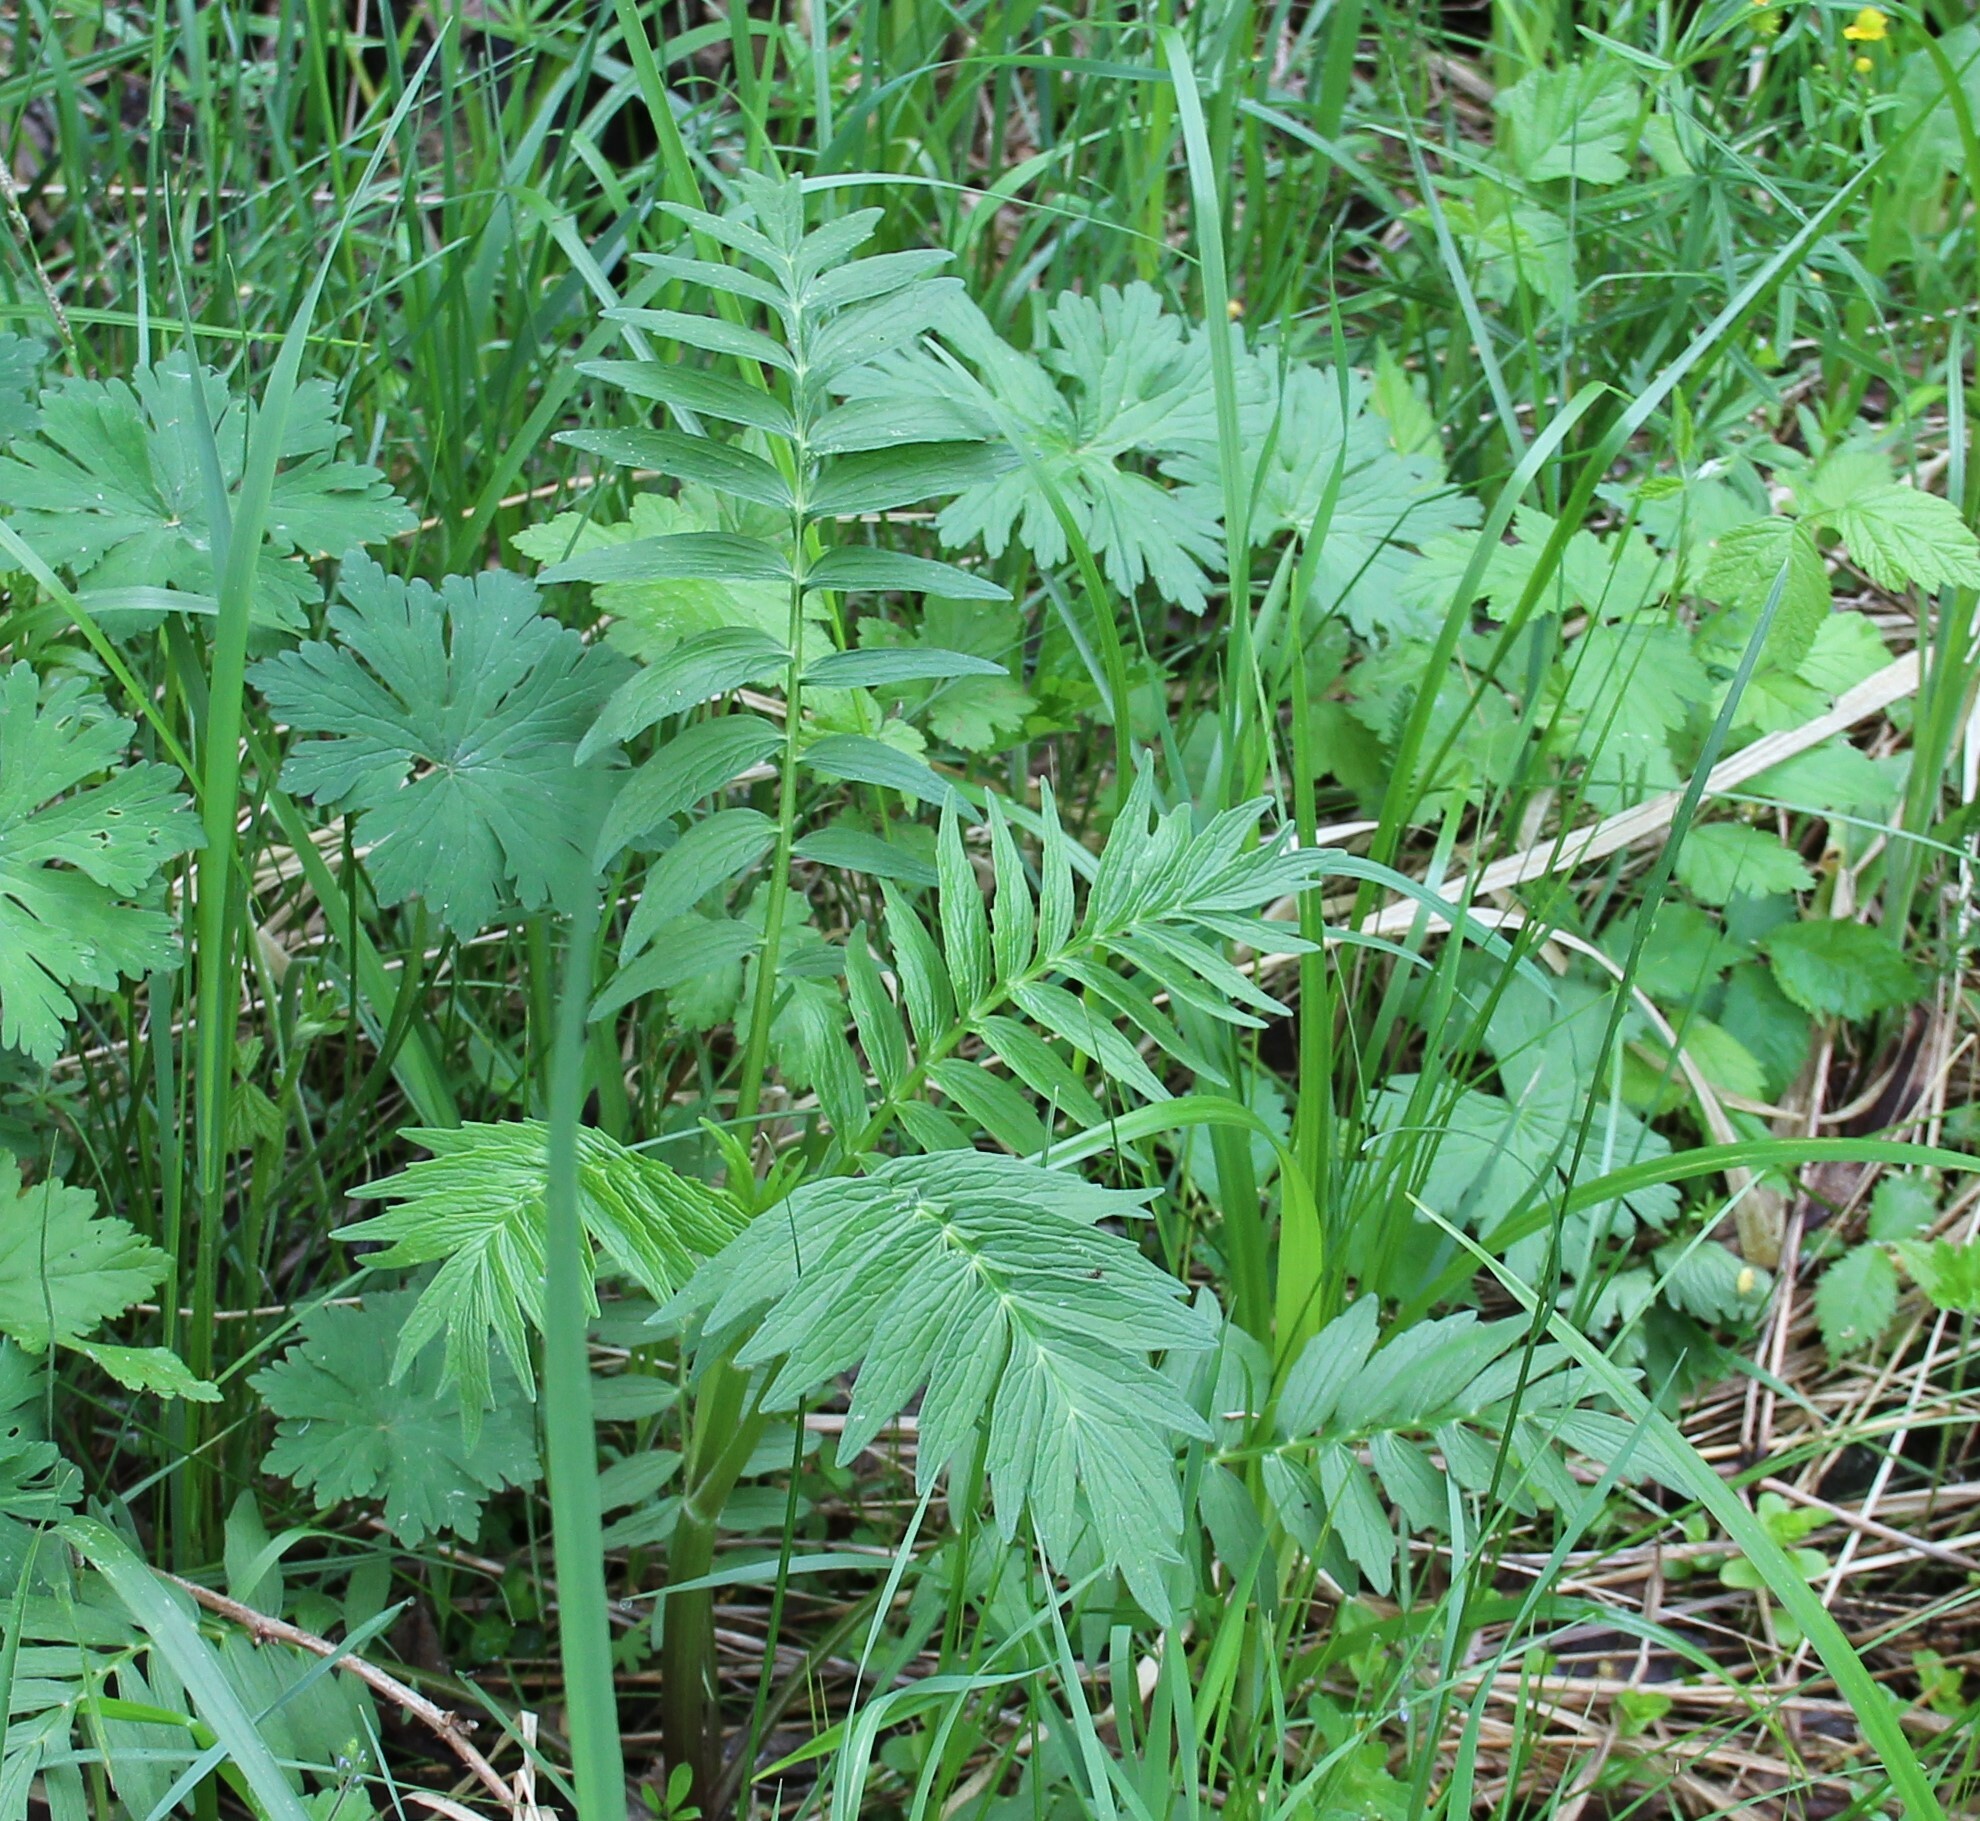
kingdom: Plantae
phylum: Tracheophyta
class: Magnoliopsida
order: Dipsacales
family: Caprifoliaceae
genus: Valeriana
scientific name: Valeriana officinalis
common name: Common valerian
